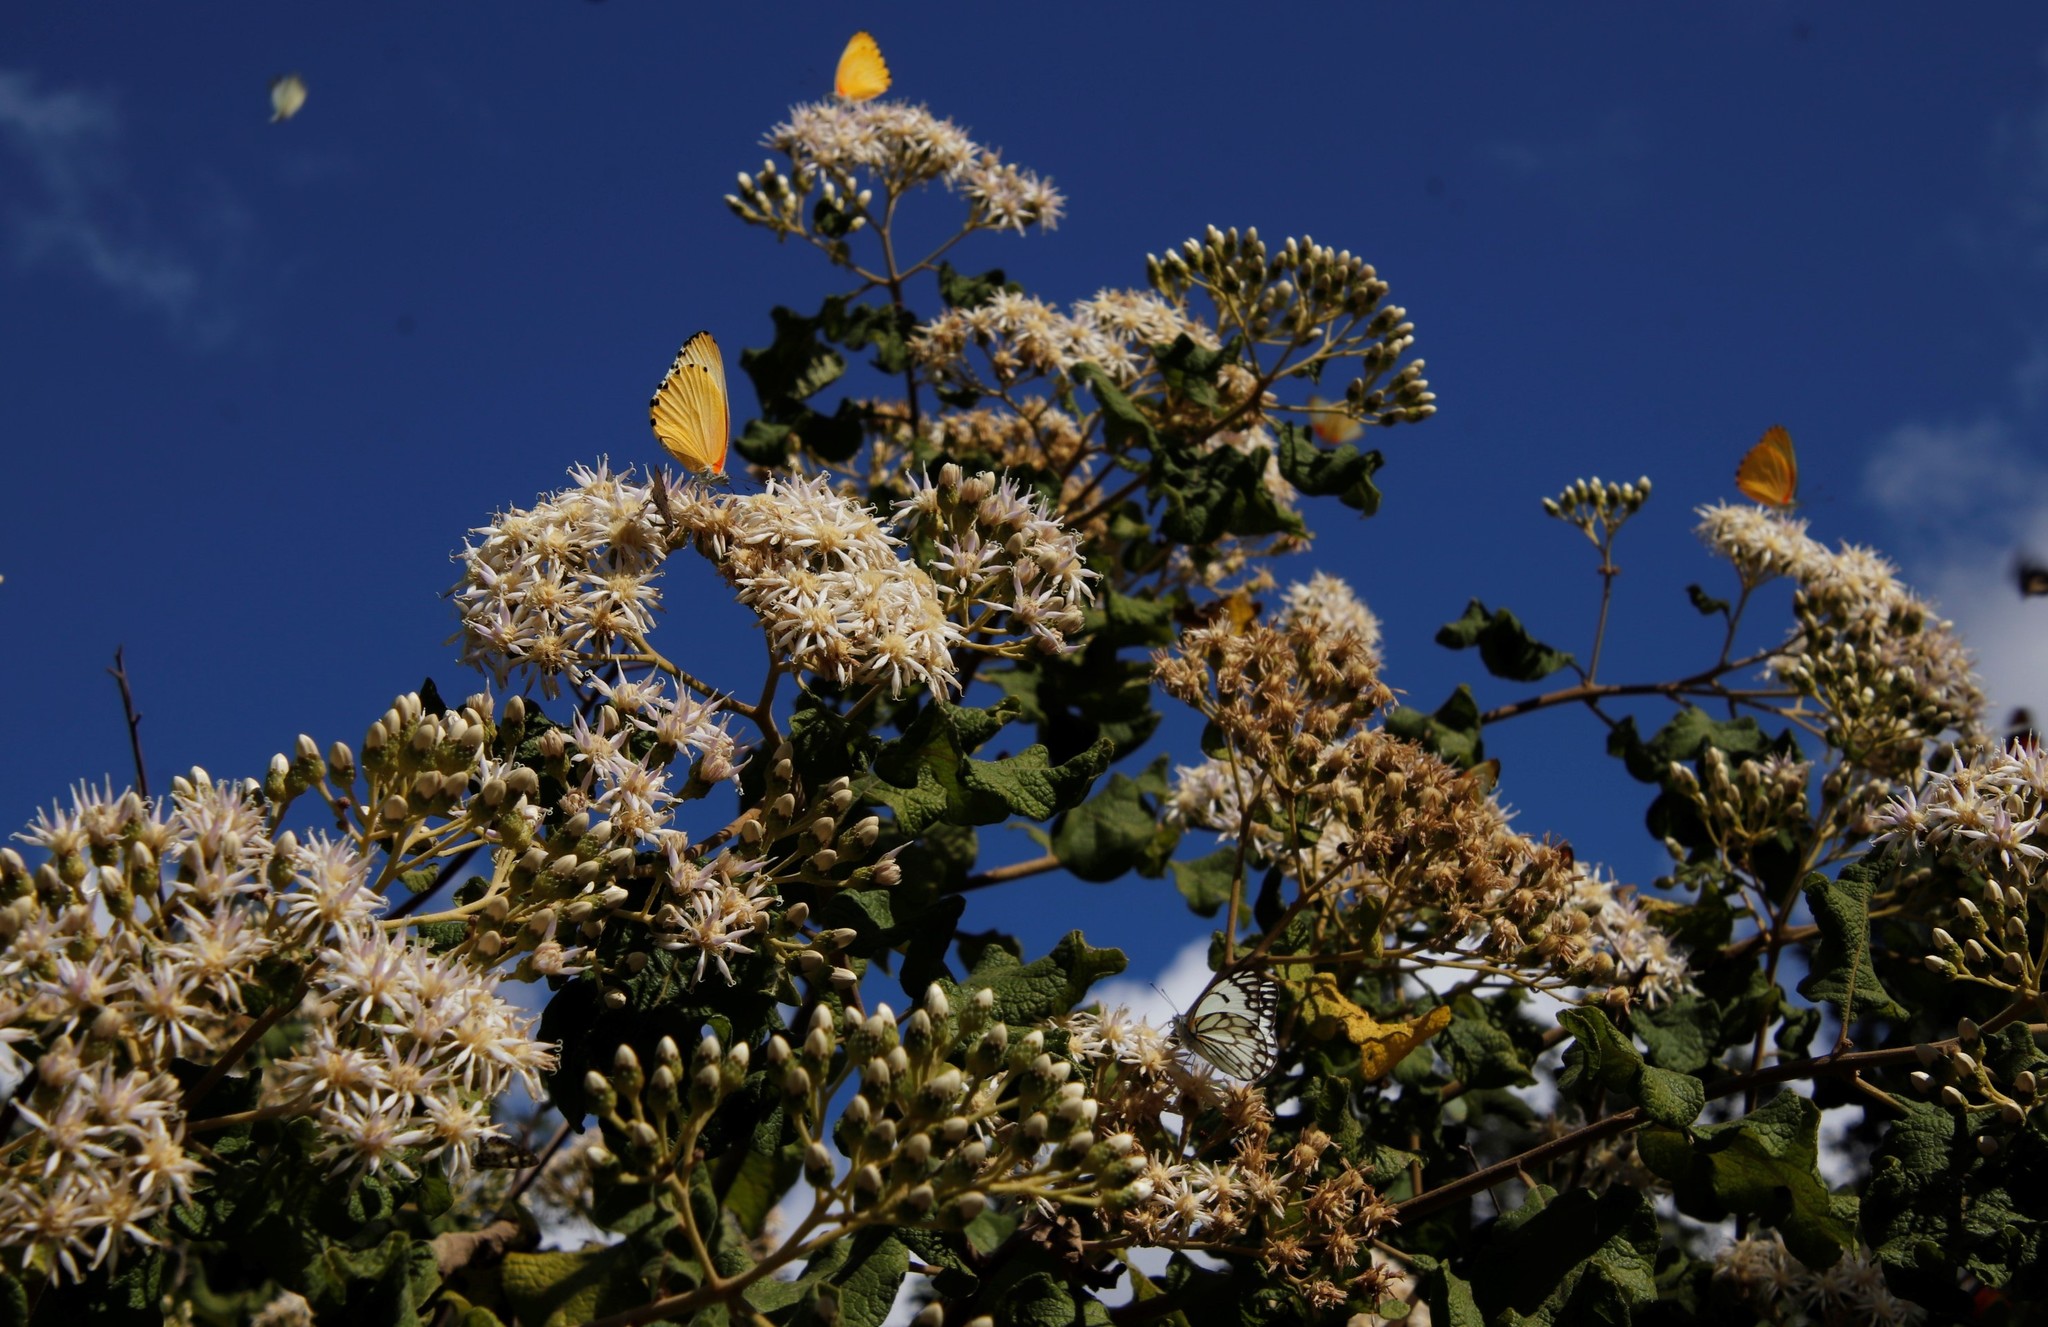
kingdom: Animalia
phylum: Arthropoda
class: Insecta
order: Lepidoptera
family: Pieridae
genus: Mylothris
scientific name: Mylothris agathina
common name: Eastern dotted border
